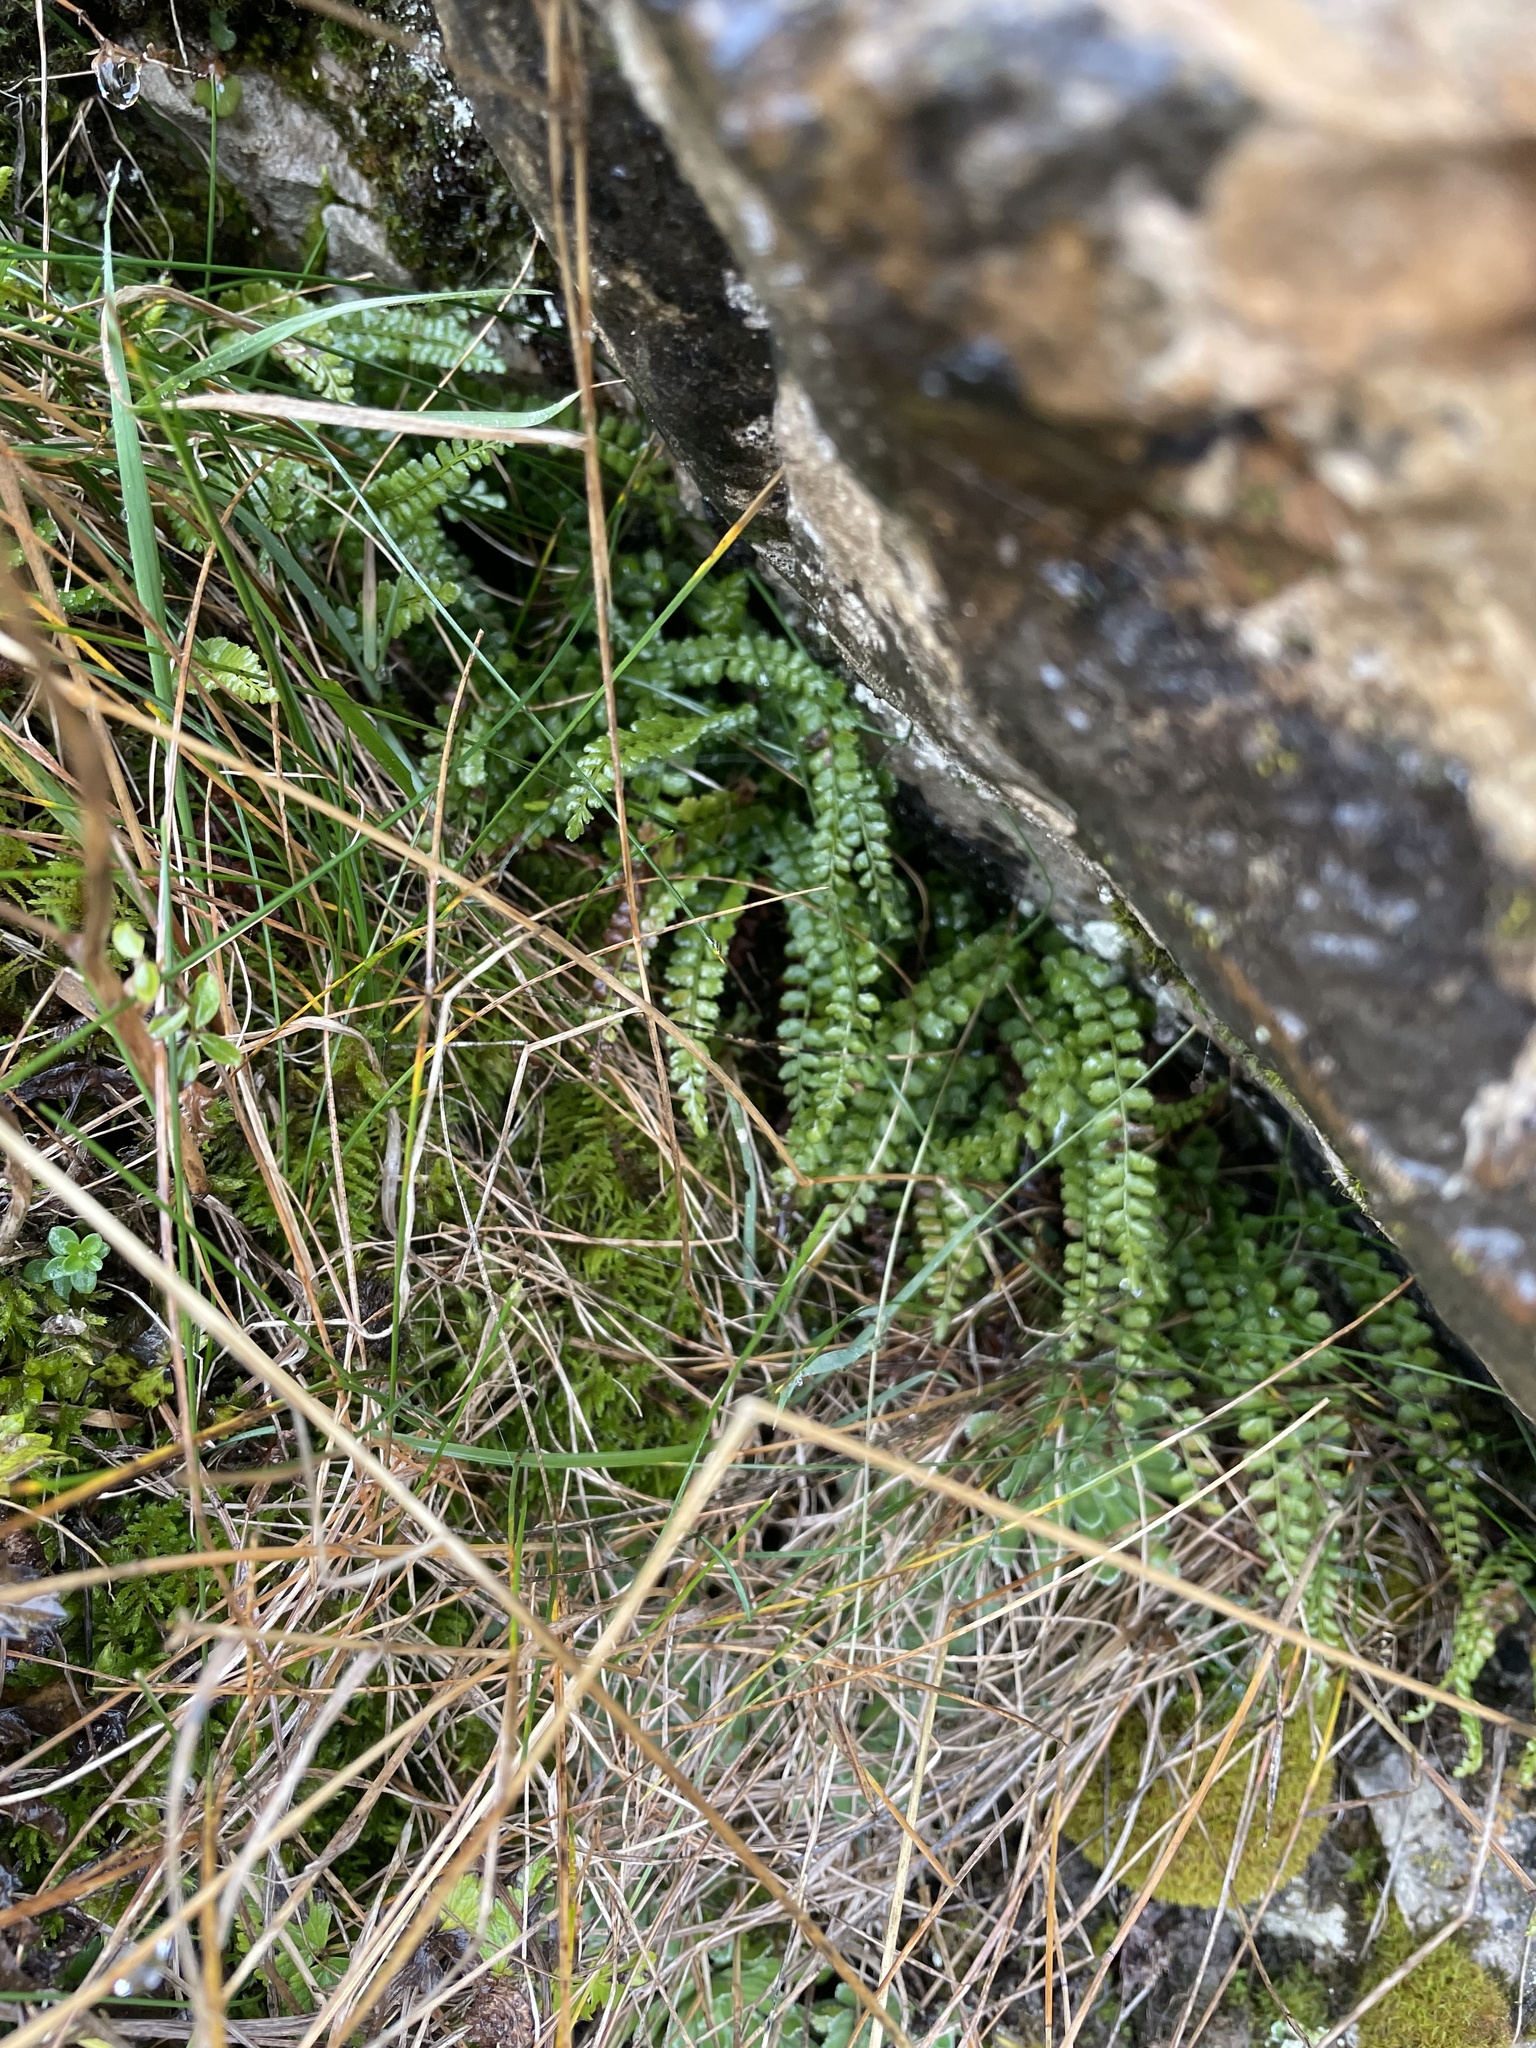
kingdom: Plantae
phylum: Tracheophyta
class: Polypodiopsida
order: Polypodiales
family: Aspleniaceae
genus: Asplenium
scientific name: Asplenium viride
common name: Green spleenwort
